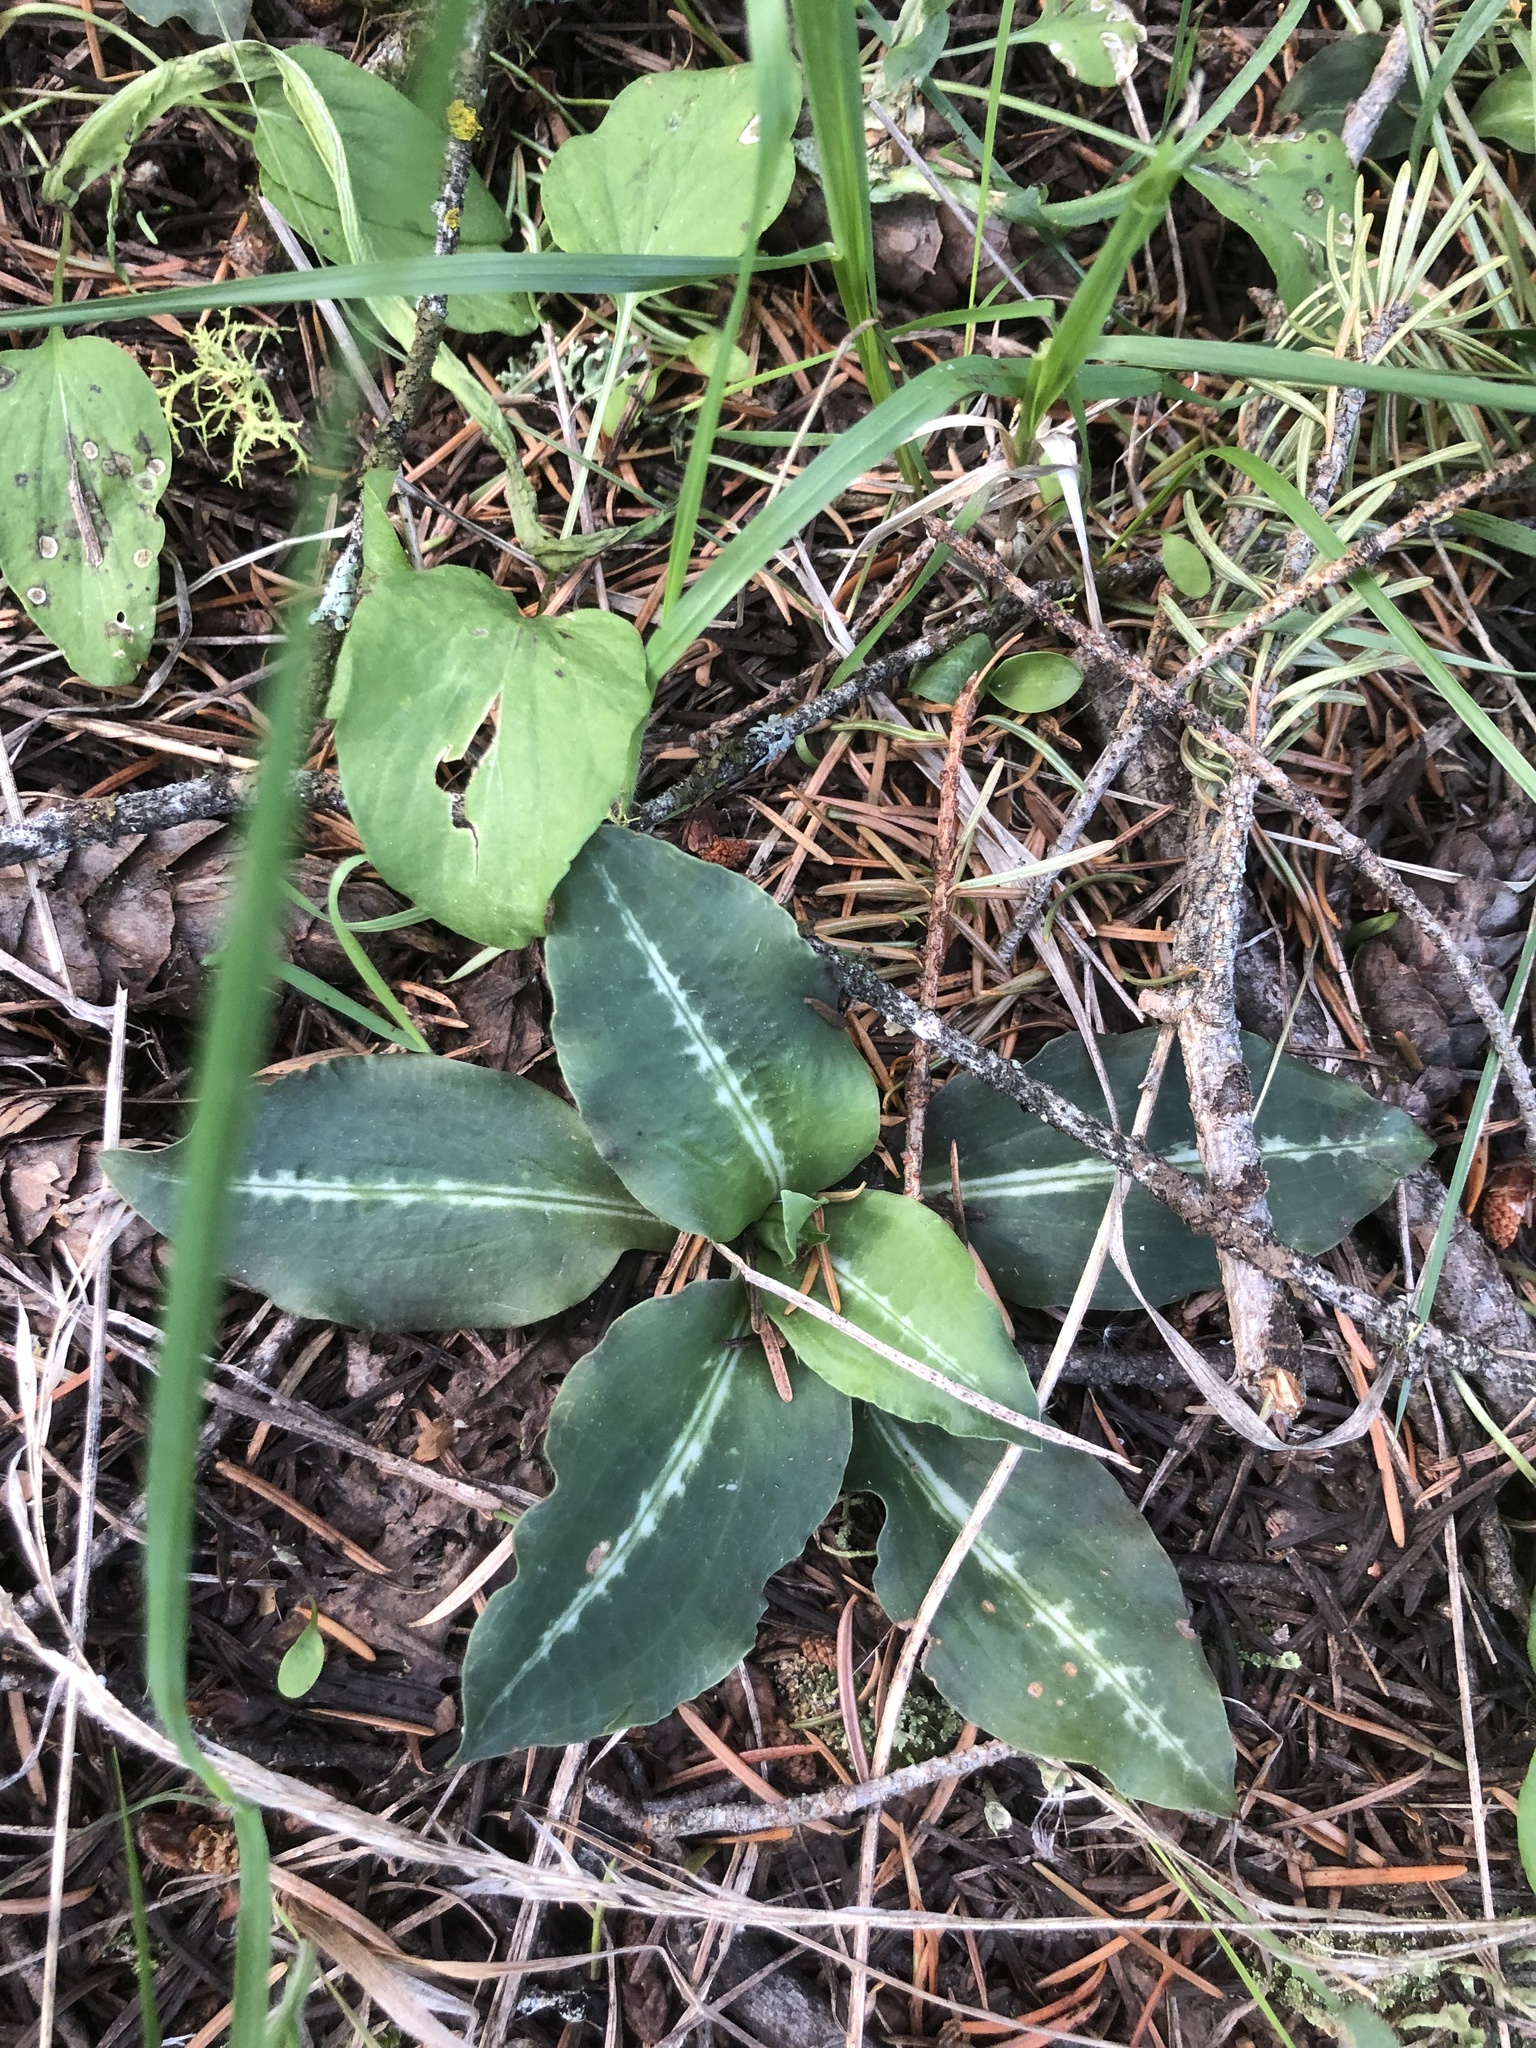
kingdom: Plantae
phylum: Tracheophyta
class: Liliopsida
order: Asparagales
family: Orchidaceae
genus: Goodyera
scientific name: Goodyera oblongifolia
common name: Giant rattlesnake-plantain
